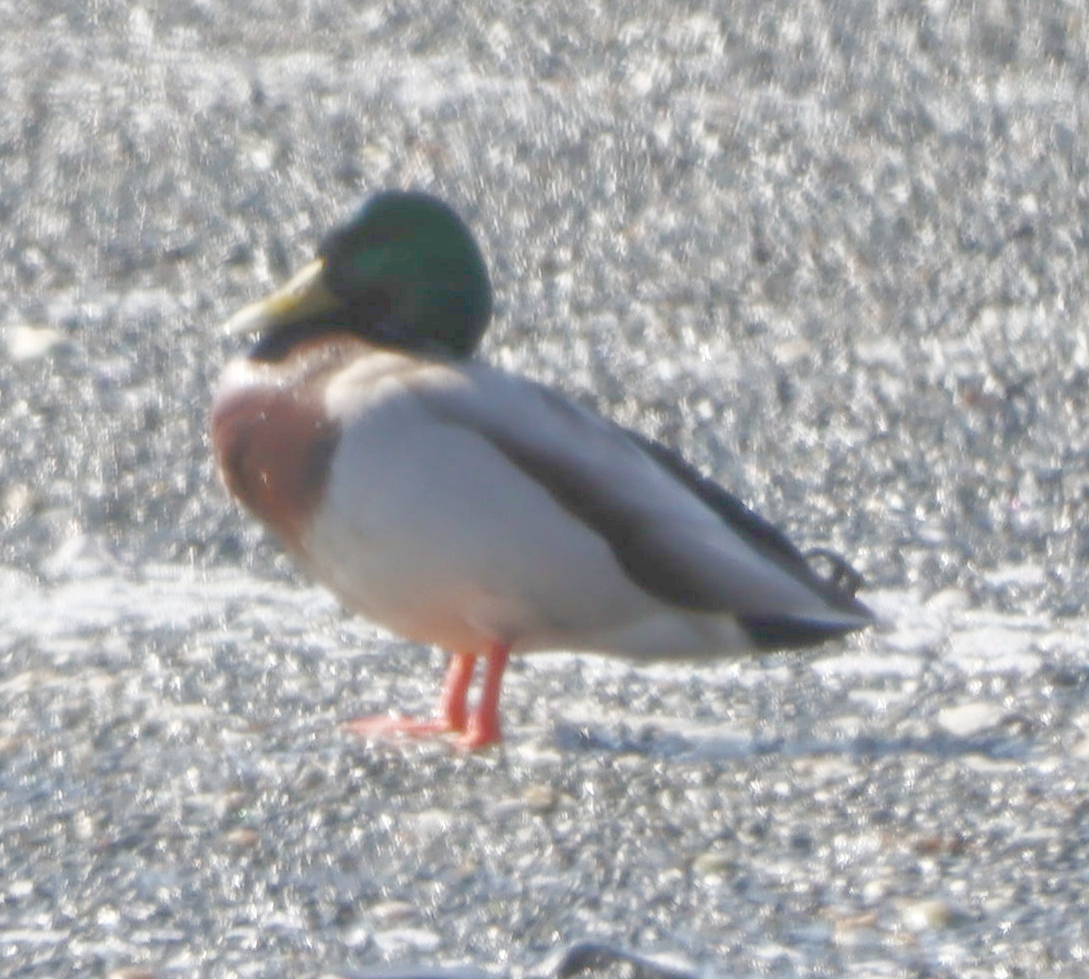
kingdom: Animalia
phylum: Chordata
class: Aves
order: Anseriformes
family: Anatidae
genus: Anas
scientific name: Anas platyrhynchos
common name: Mallard
